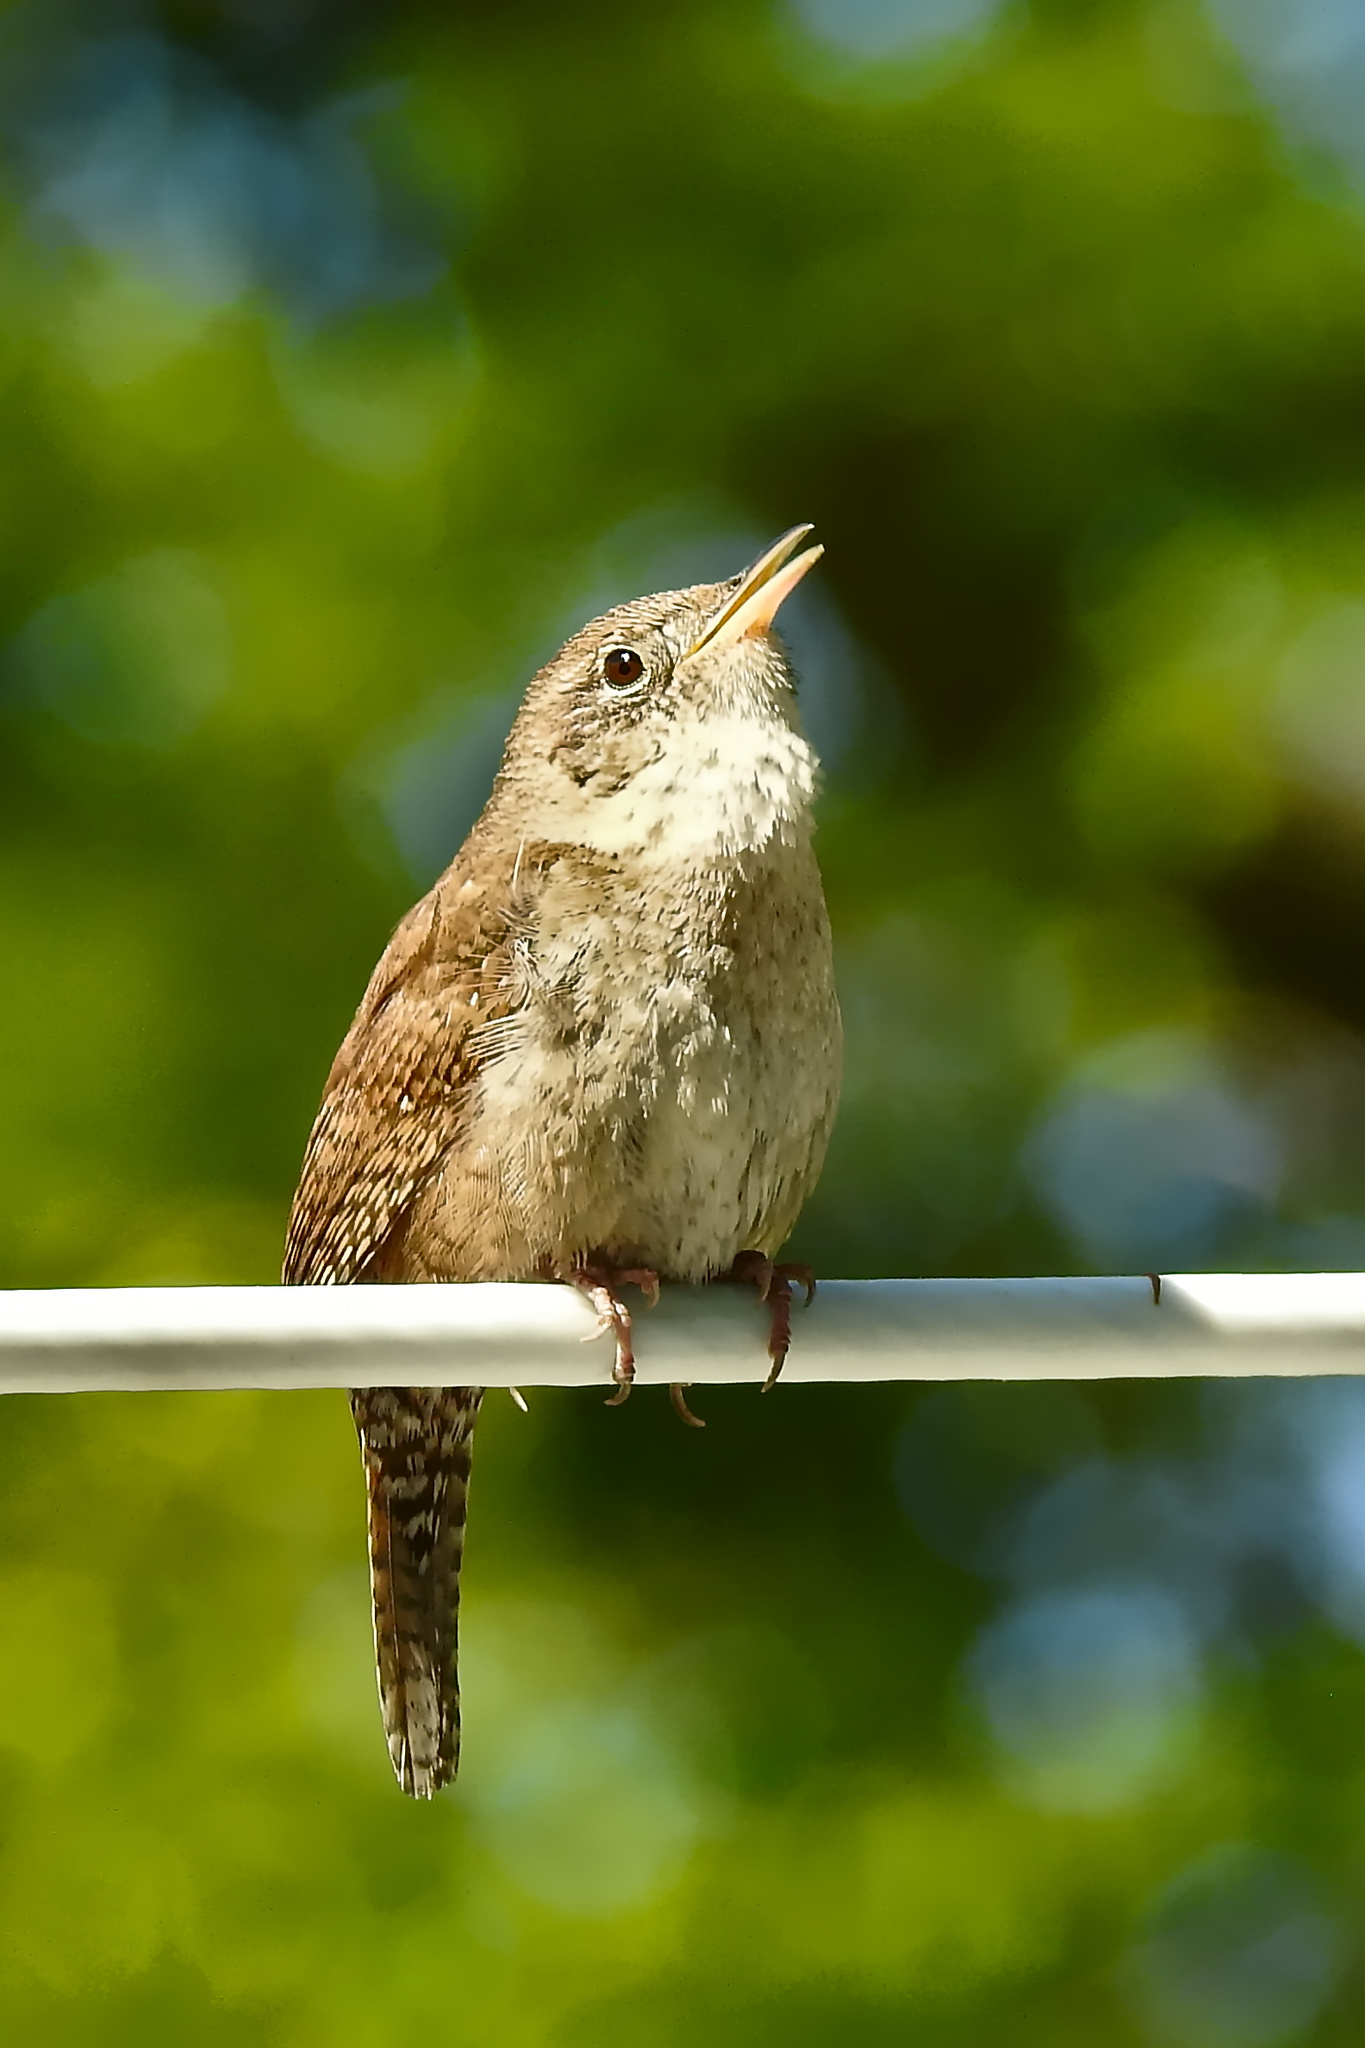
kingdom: Animalia
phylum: Chordata
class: Aves
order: Passeriformes
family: Troglodytidae
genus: Troglodytes
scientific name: Troglodytes aedon
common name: House wren
